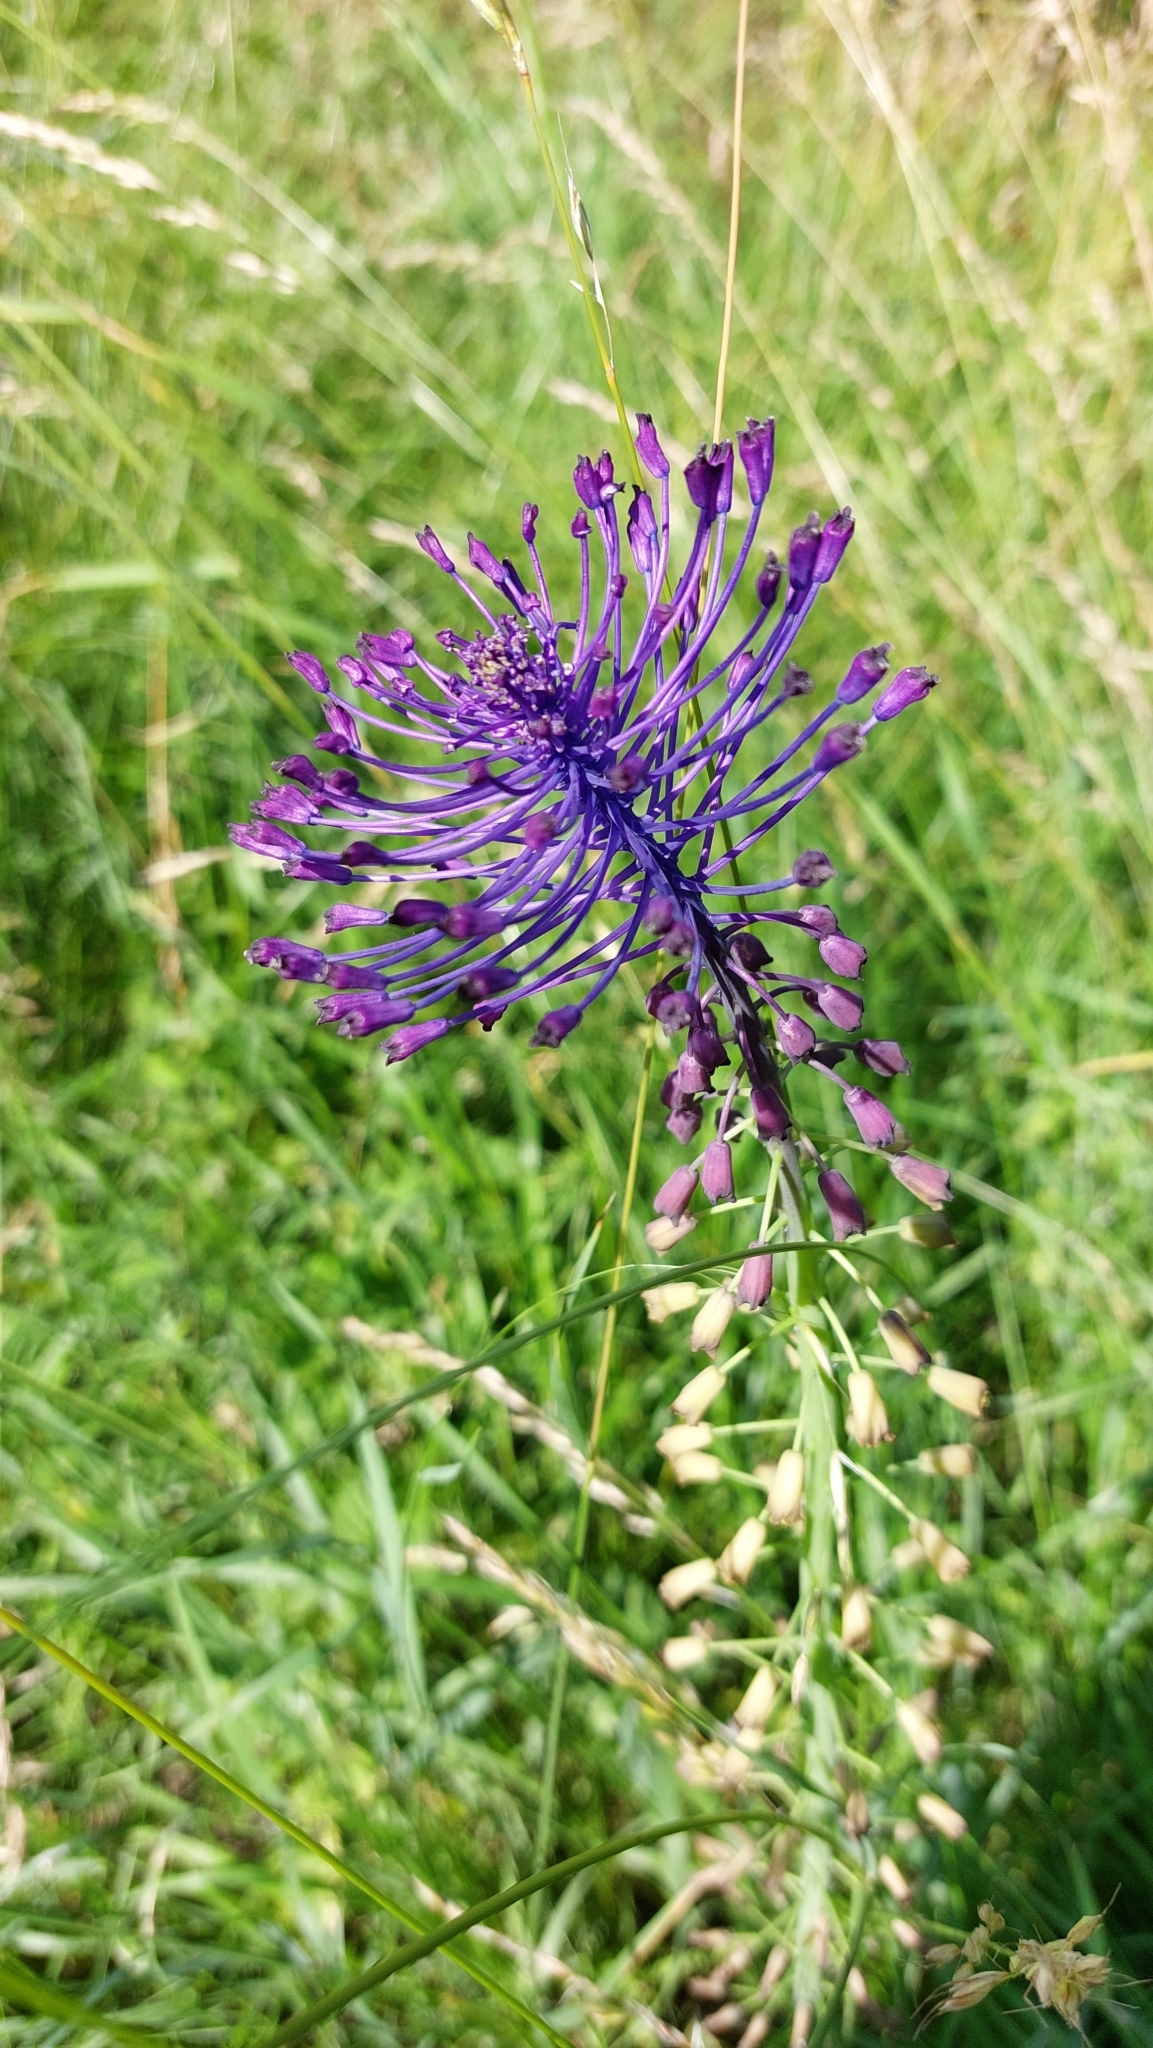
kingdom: Plantae
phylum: Tracheophyta
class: Liliopsida
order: Asparagales
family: Asparagaceae
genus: Muscari
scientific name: Muscari comosum
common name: Tassel hyacinth
